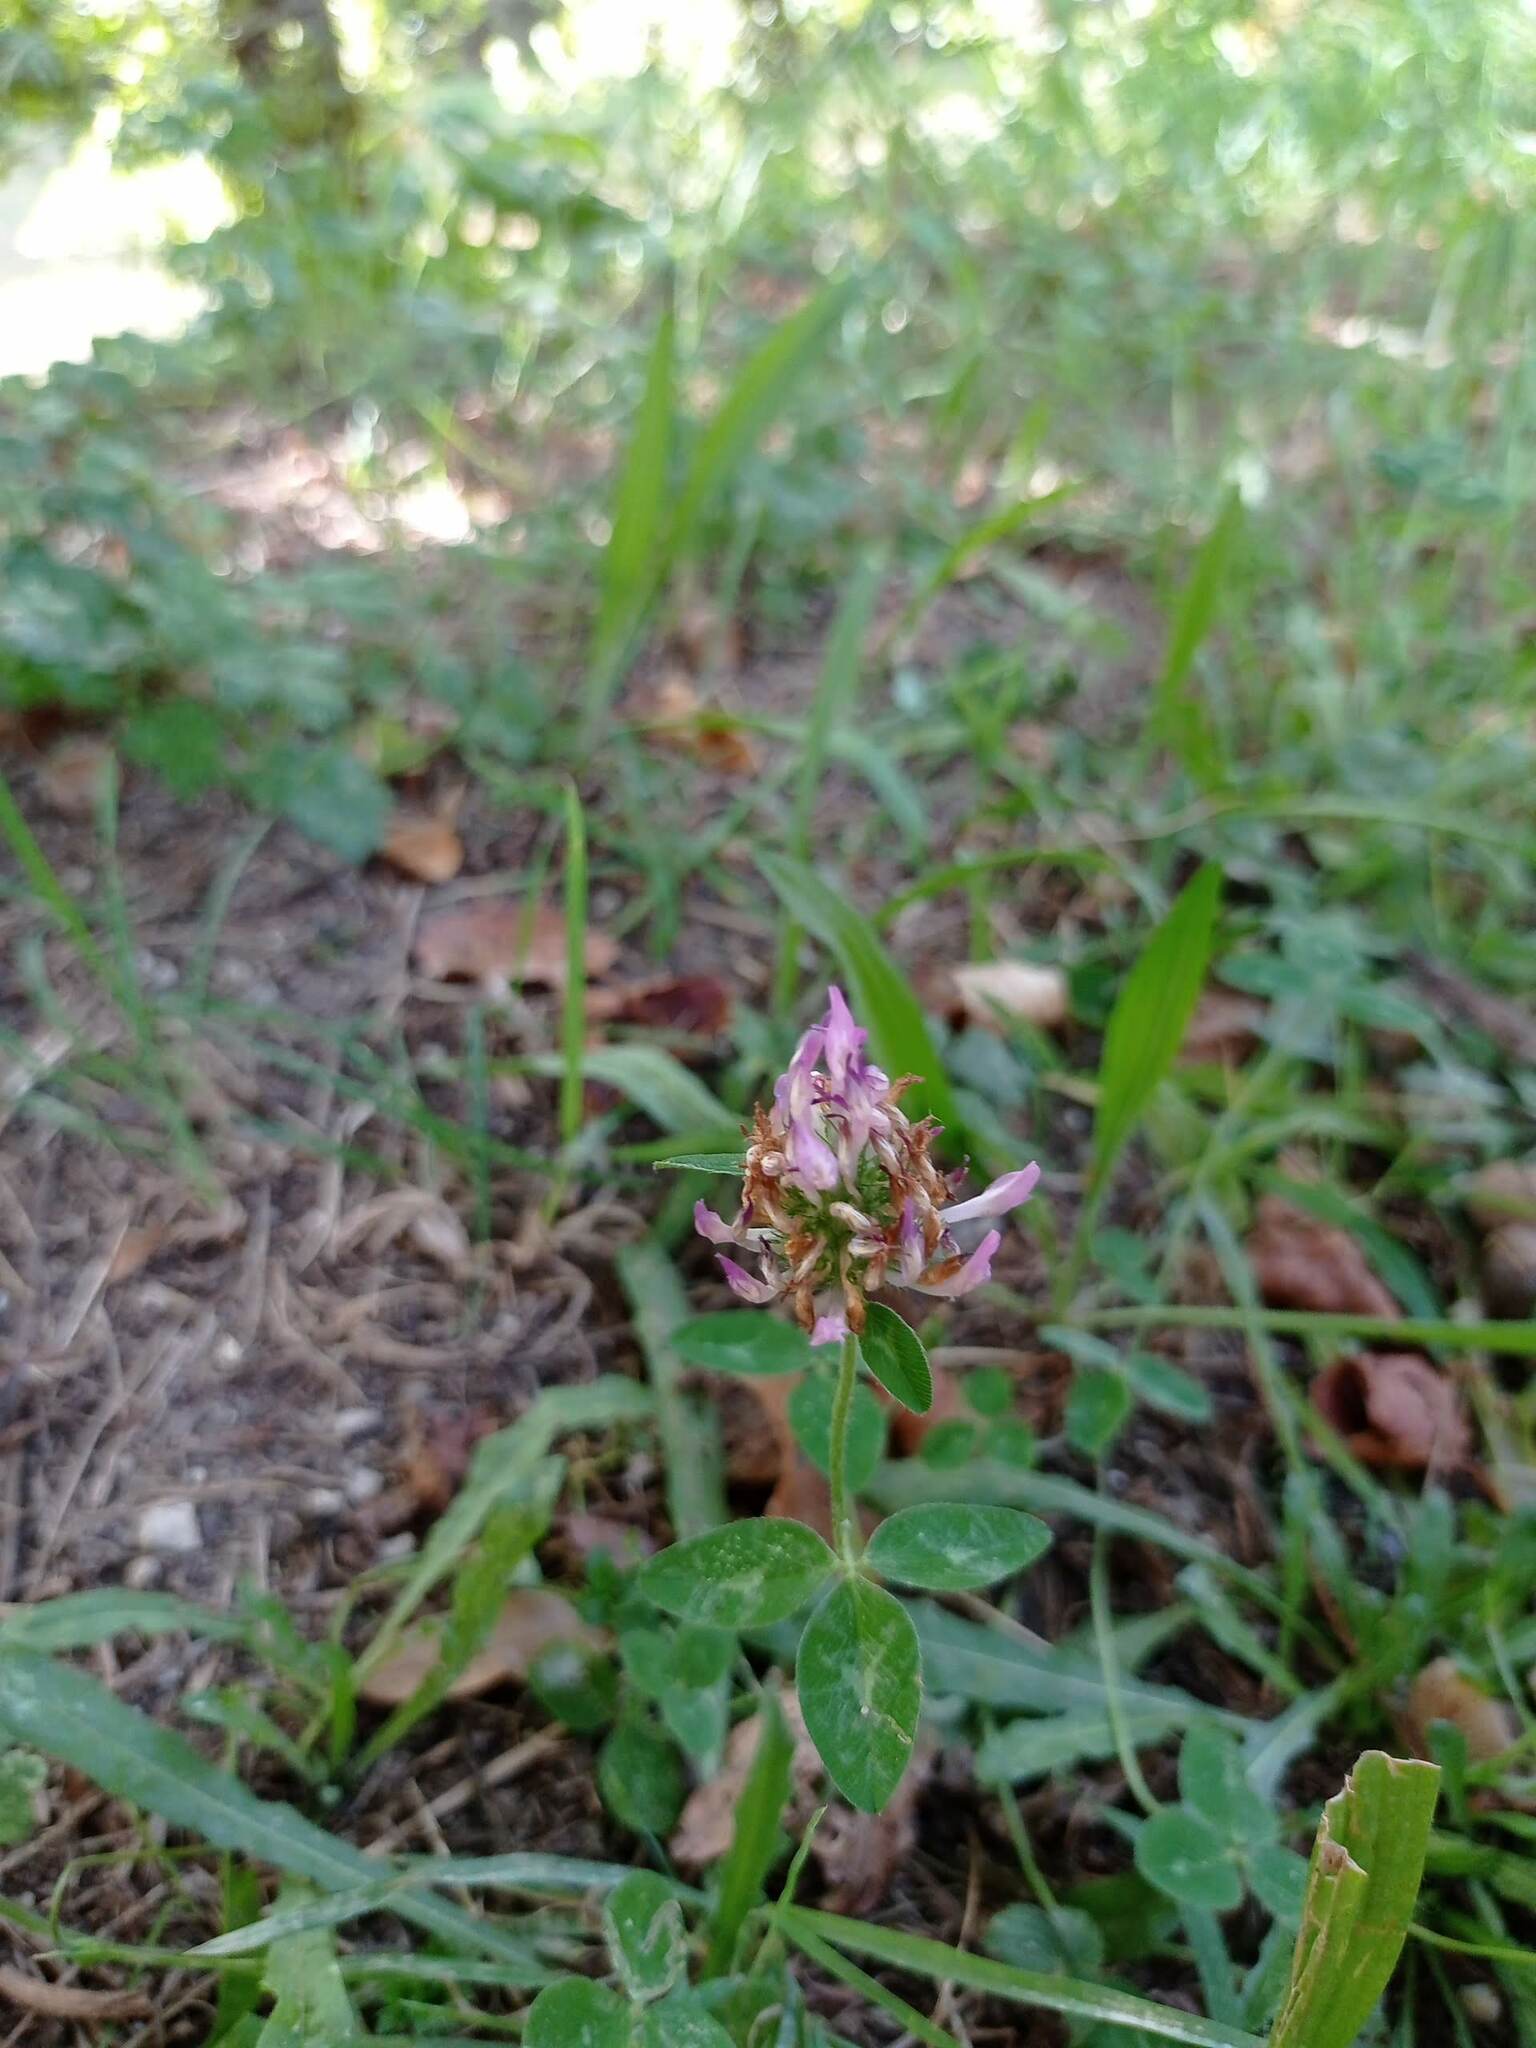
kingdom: Plantae
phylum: Tracheophyta
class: Magnoliopsida
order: Fabales
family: Fabaceae
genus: Trifolium
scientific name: Trifolium pratense
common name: Red clover
